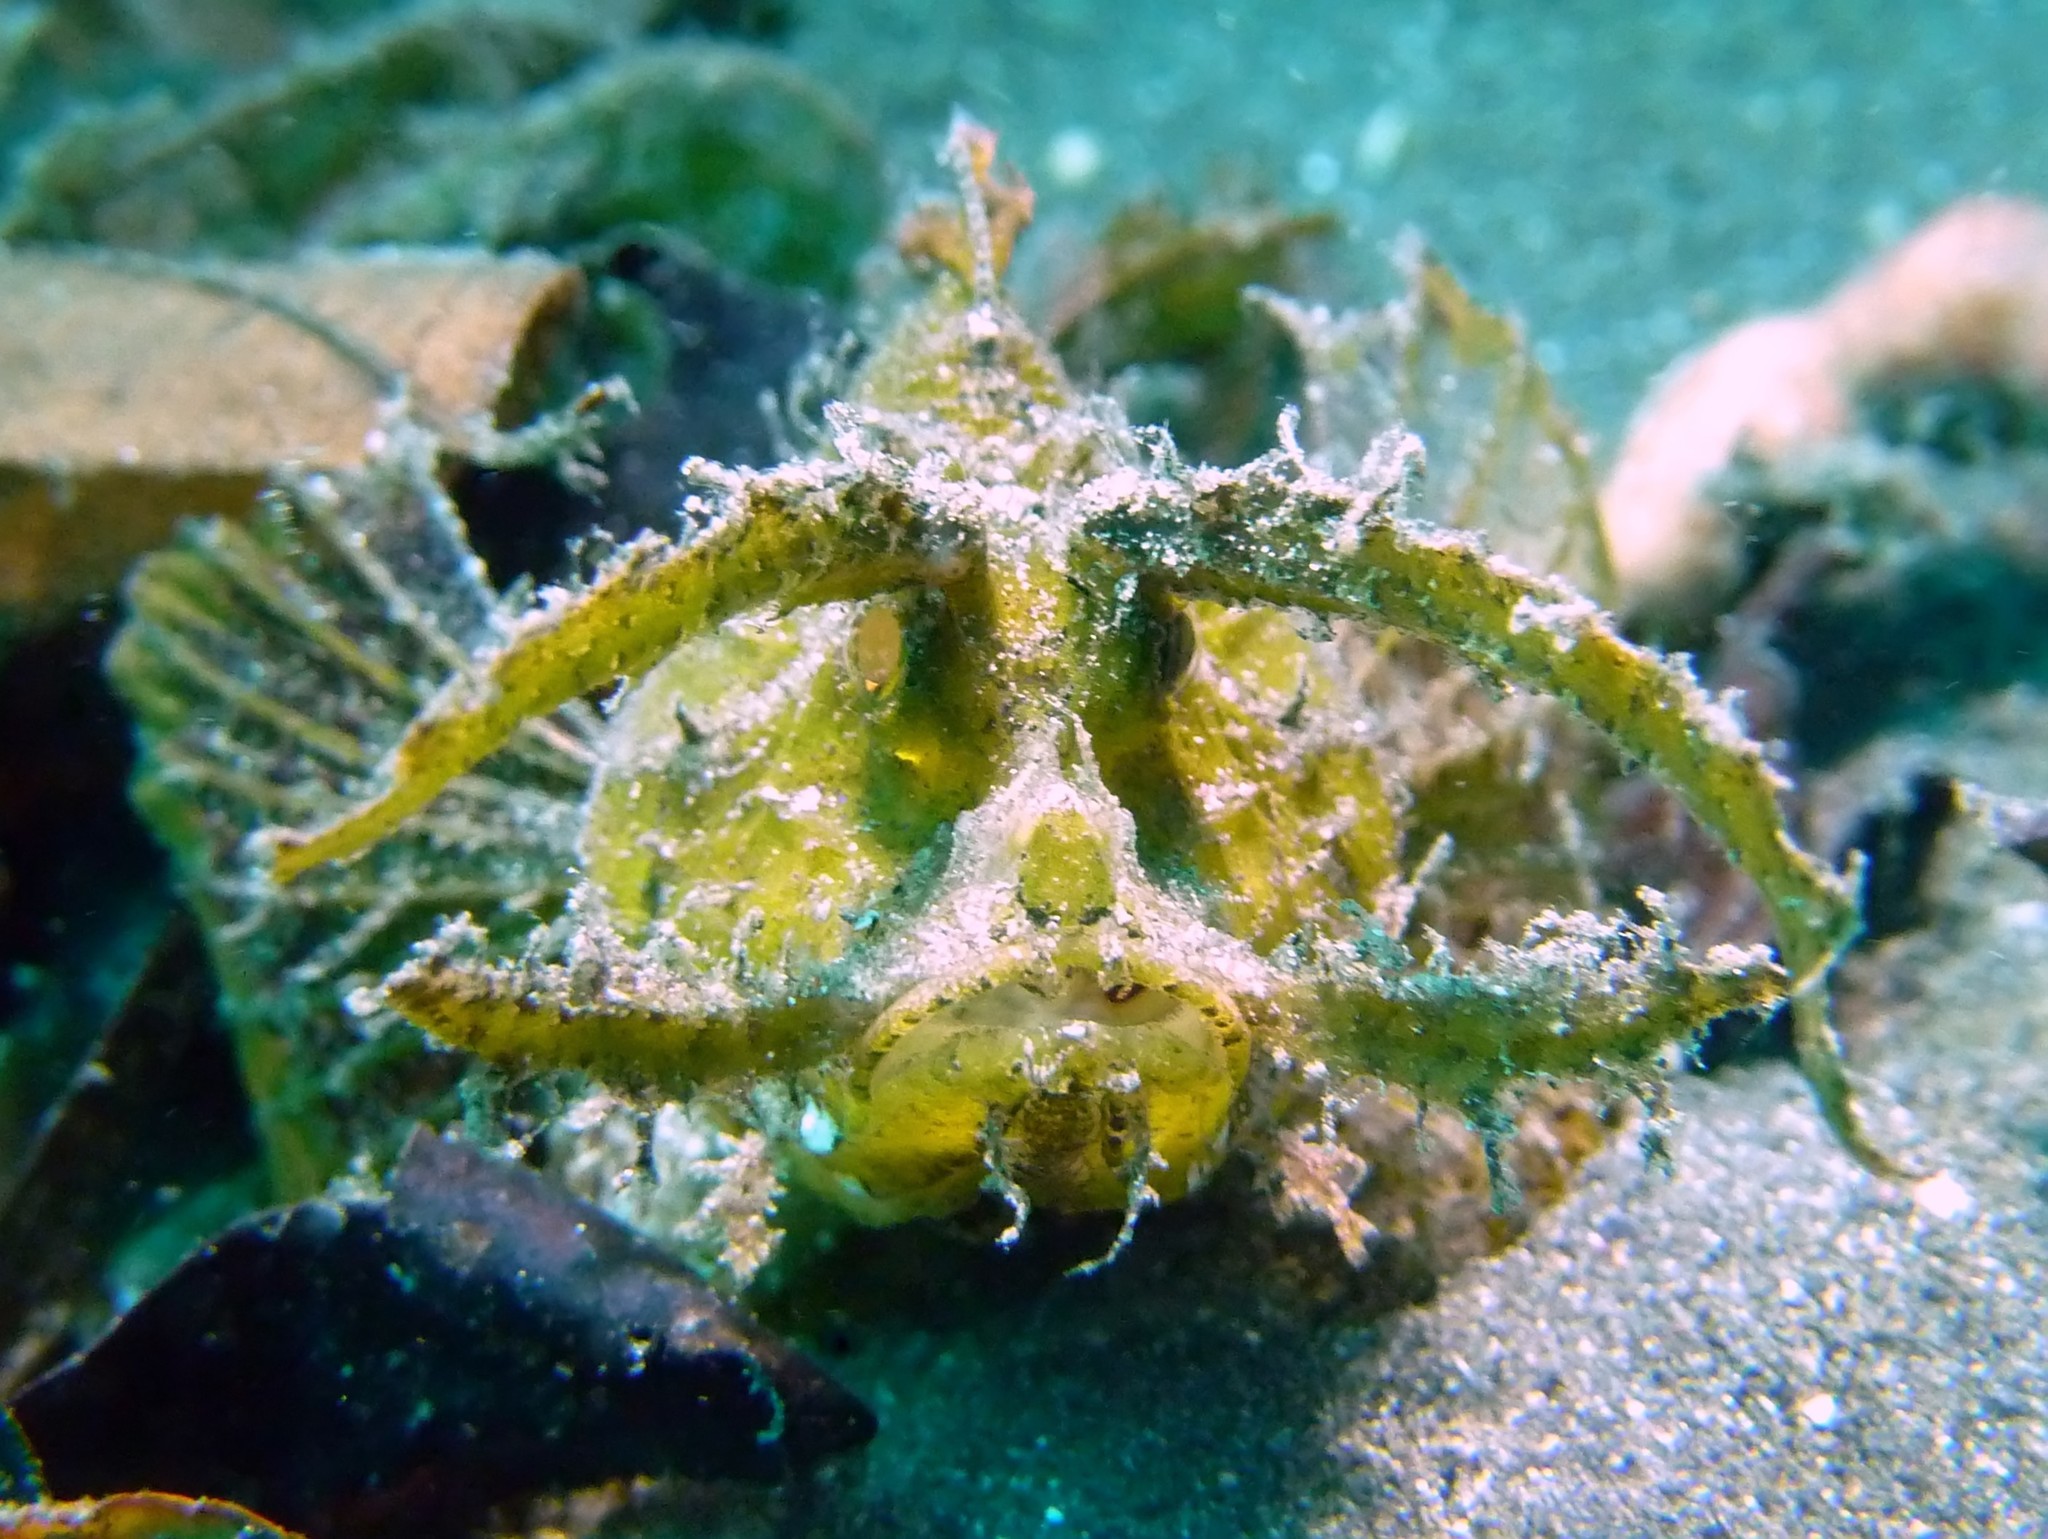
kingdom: Animalia
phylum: Chordata
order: Scorpaeniformes
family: Scorpaenidae
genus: Pteroidichthys
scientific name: Pteroidichthys amboinensis
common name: Ambon scorpionfish
